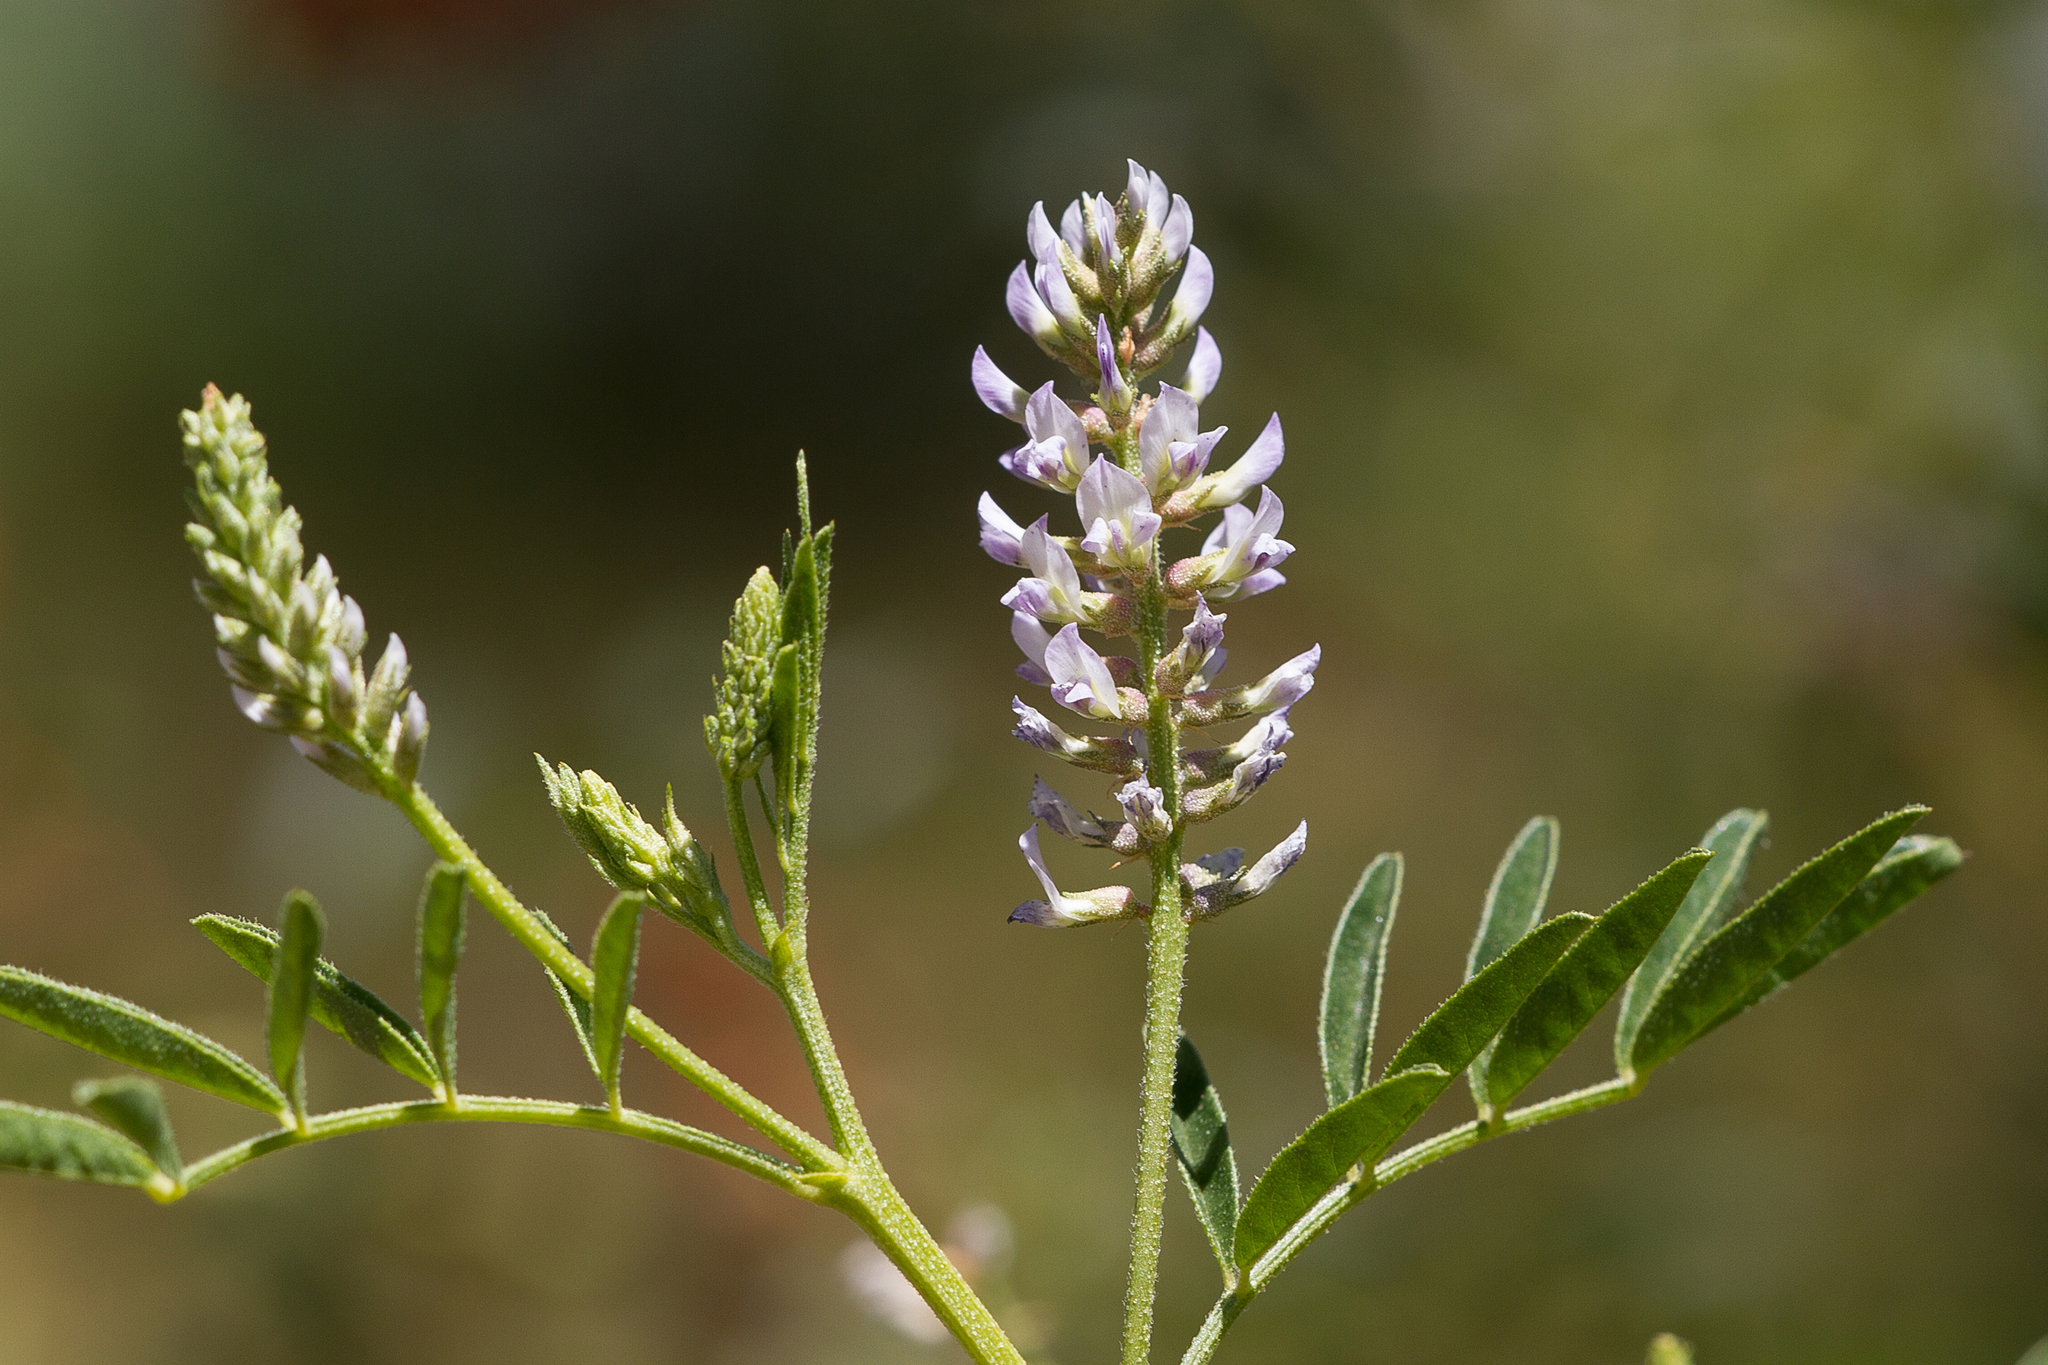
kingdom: Plantae
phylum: Tracheophyta
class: Magnoliopsida
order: Fabales
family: Fabaceae
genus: Glycyrrhiza
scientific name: Glycyrrhiza acanthocarpa
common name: Southern liquorice
